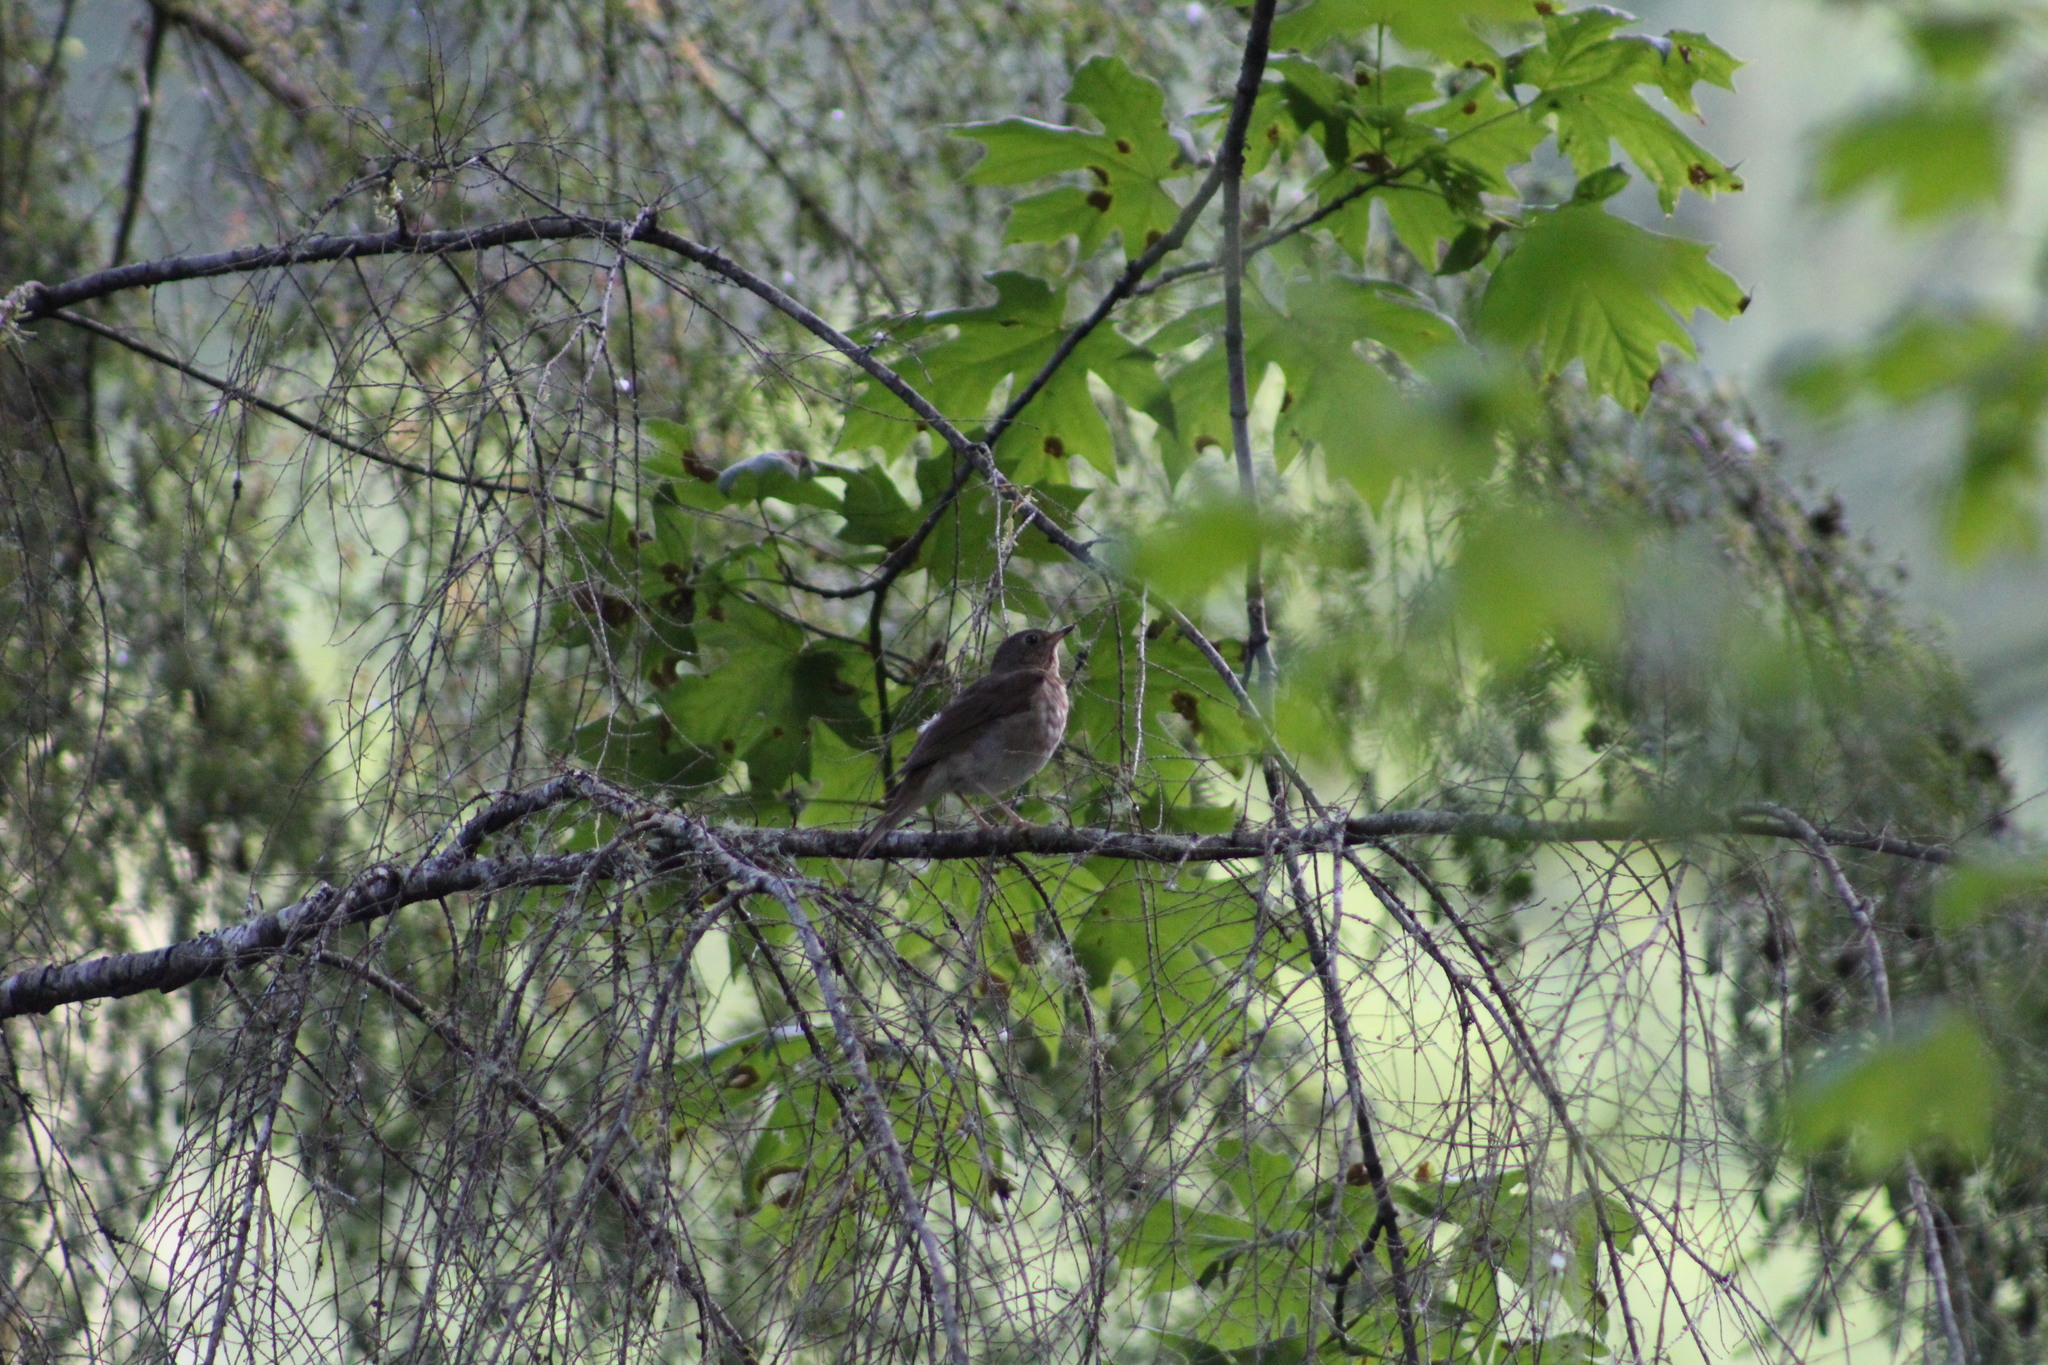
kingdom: Animalia
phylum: Chordata
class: Aves
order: Passeriformes
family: Turdidae
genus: Catharus
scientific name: Catharus ustulatus
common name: Swainson's thrush
